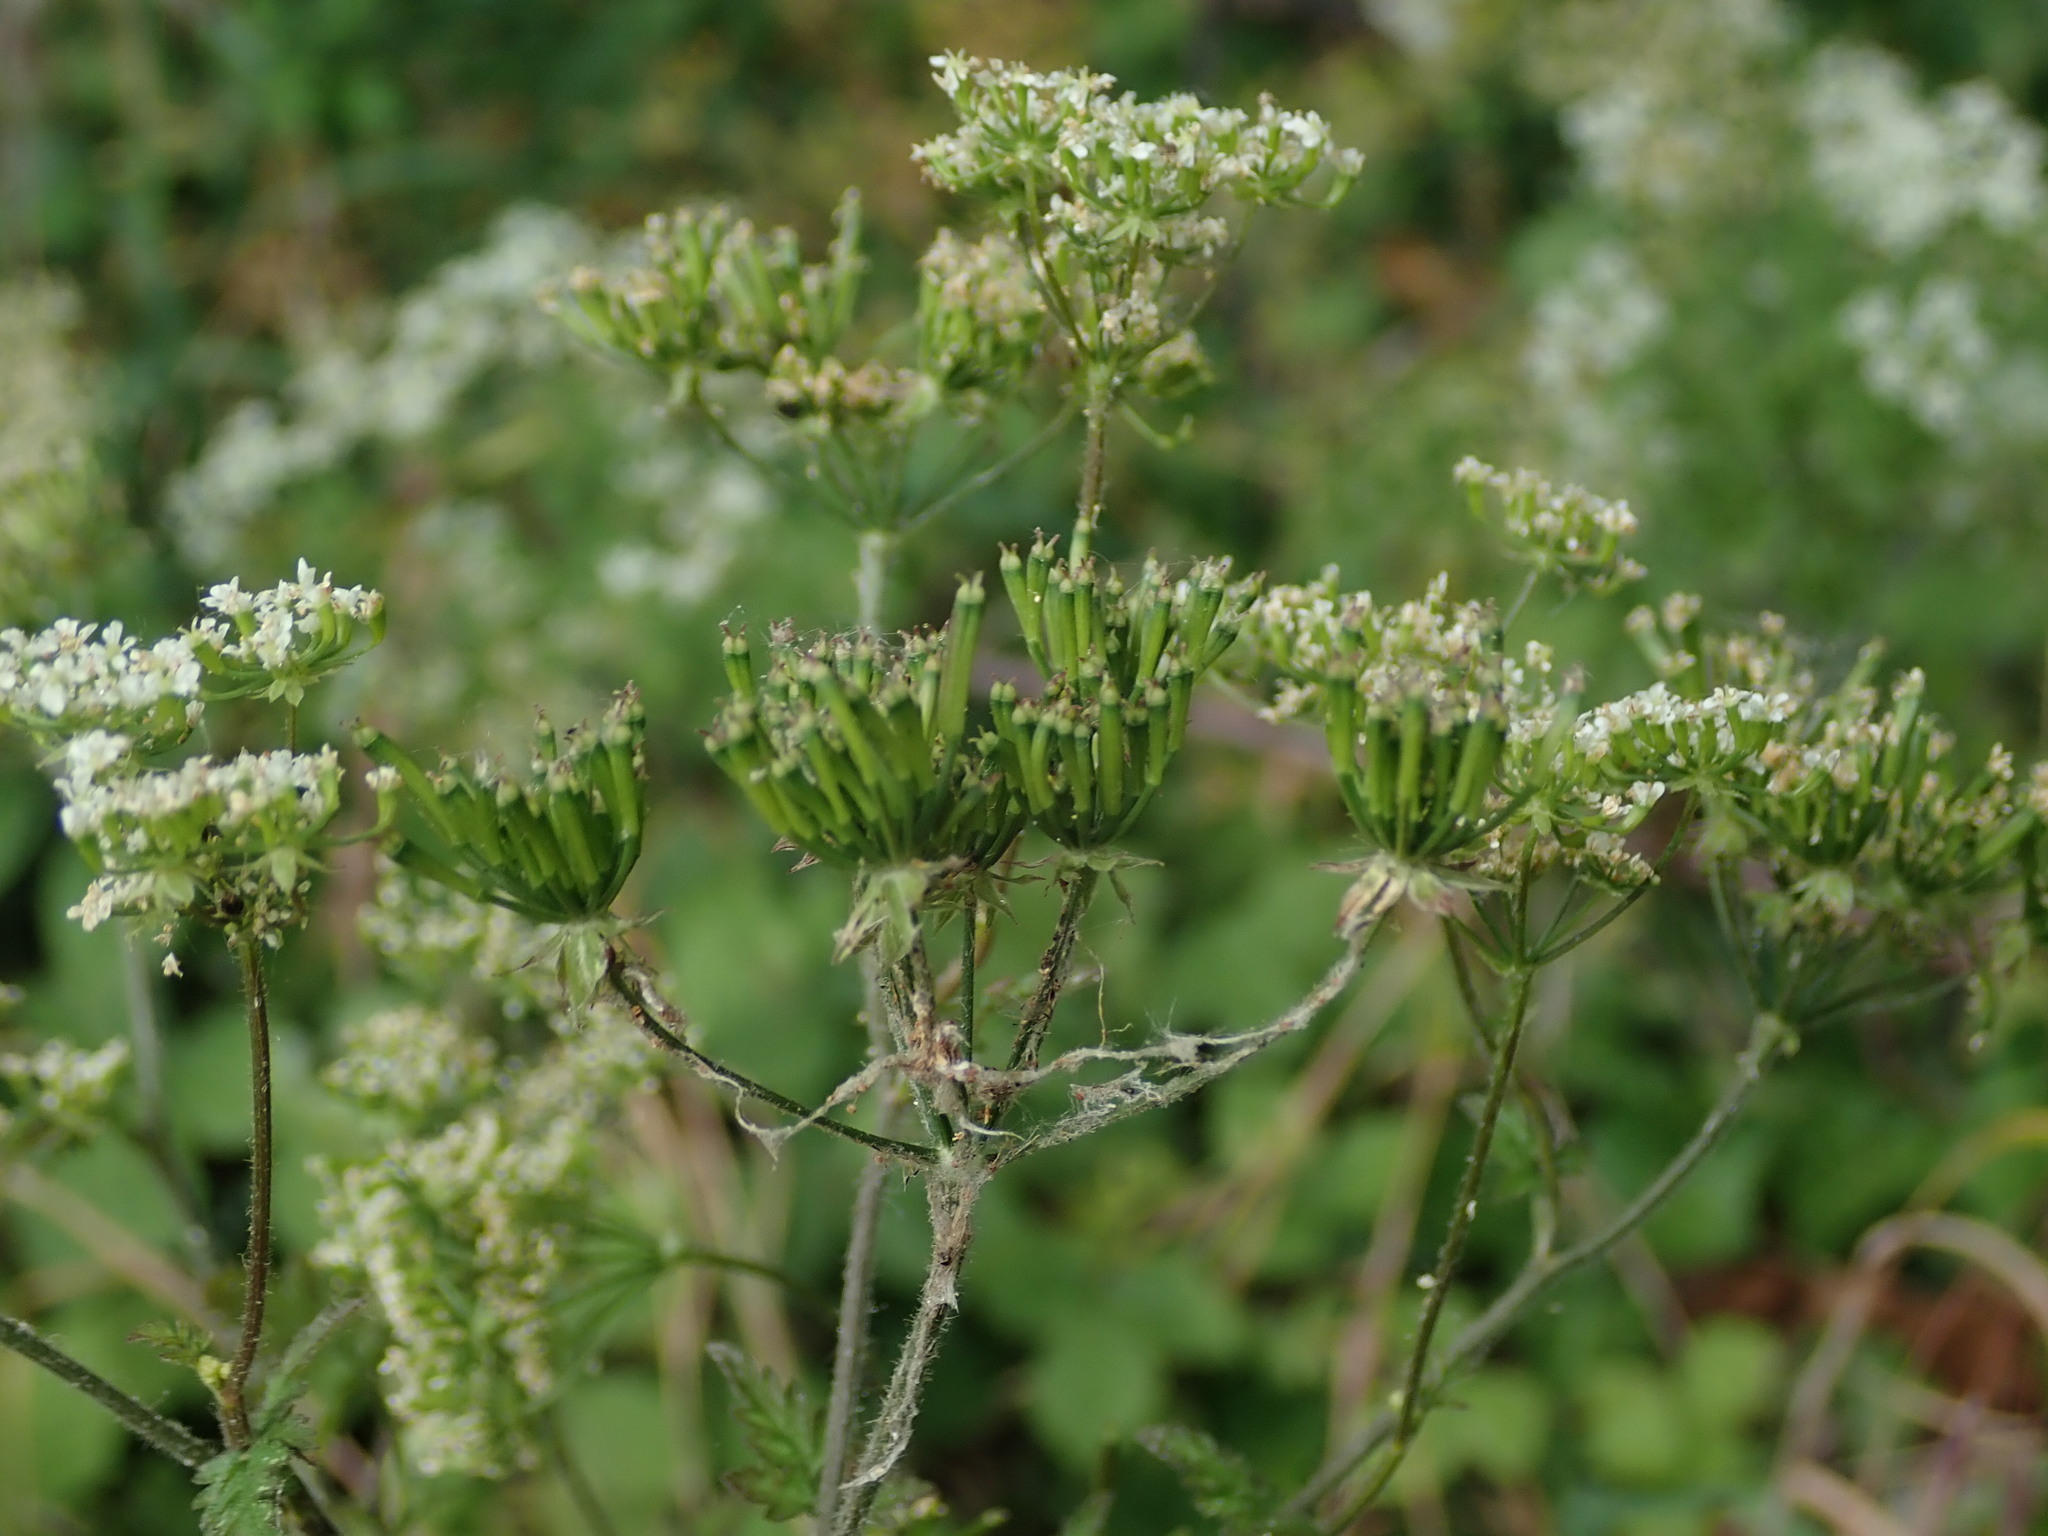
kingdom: Plantae
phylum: Tracheophyta
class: Magnoliopsida
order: Apiales
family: Apiaceae
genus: Chaerophyllum
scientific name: Chaerophyllum temulum
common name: Rough chervil
